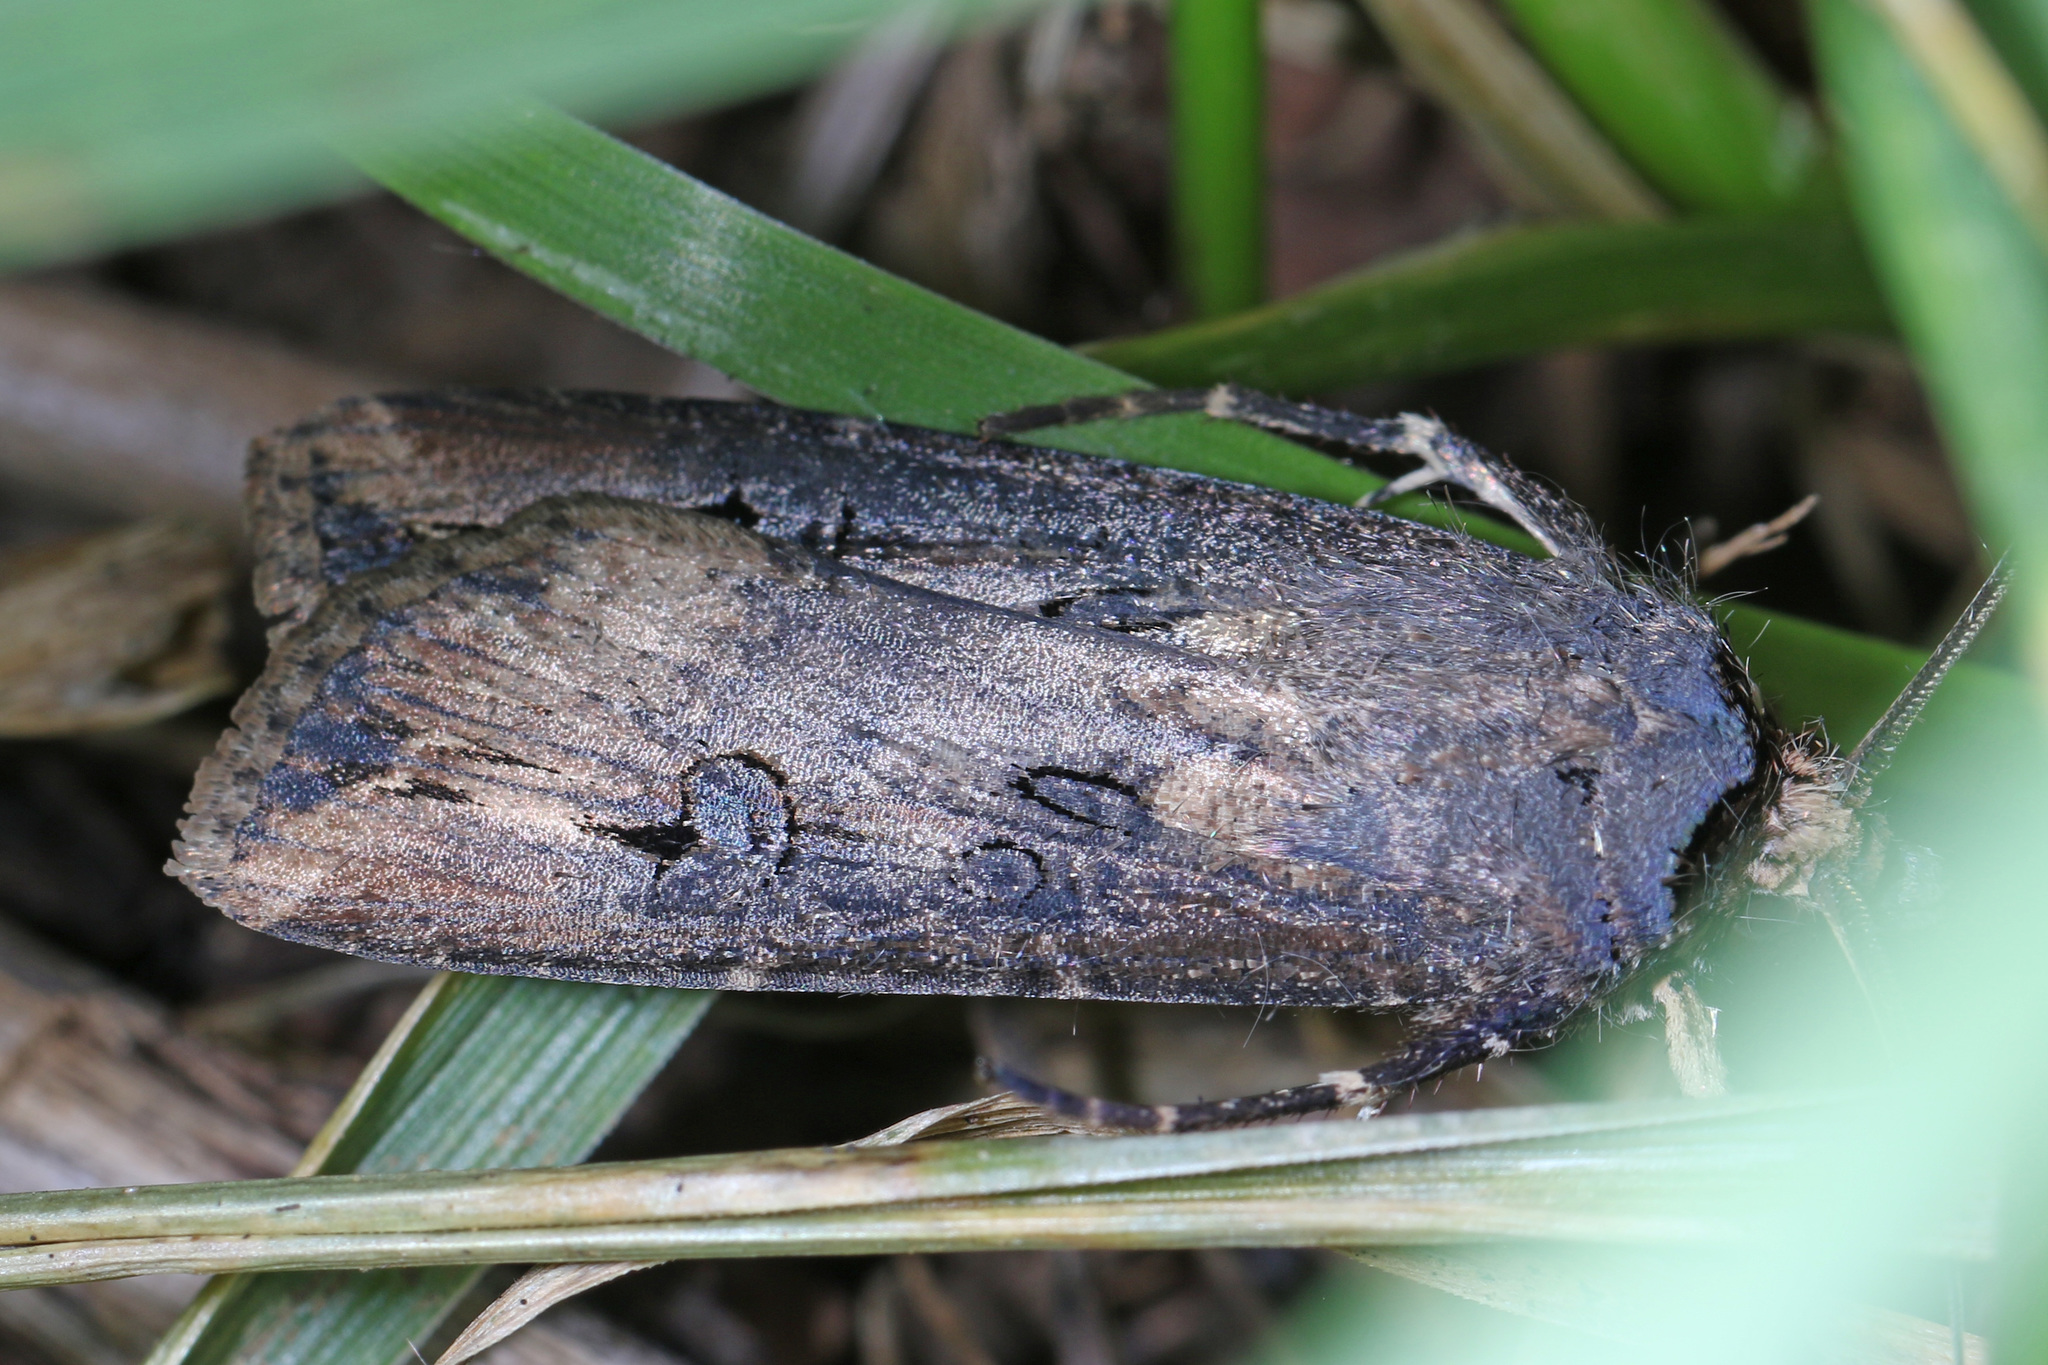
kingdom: Animalia
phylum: Arthropoda
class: Insecta
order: Lepidoptera
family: Noctuidae
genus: Agrotis
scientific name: Agrotis ipsilon
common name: Dark sword-grass
